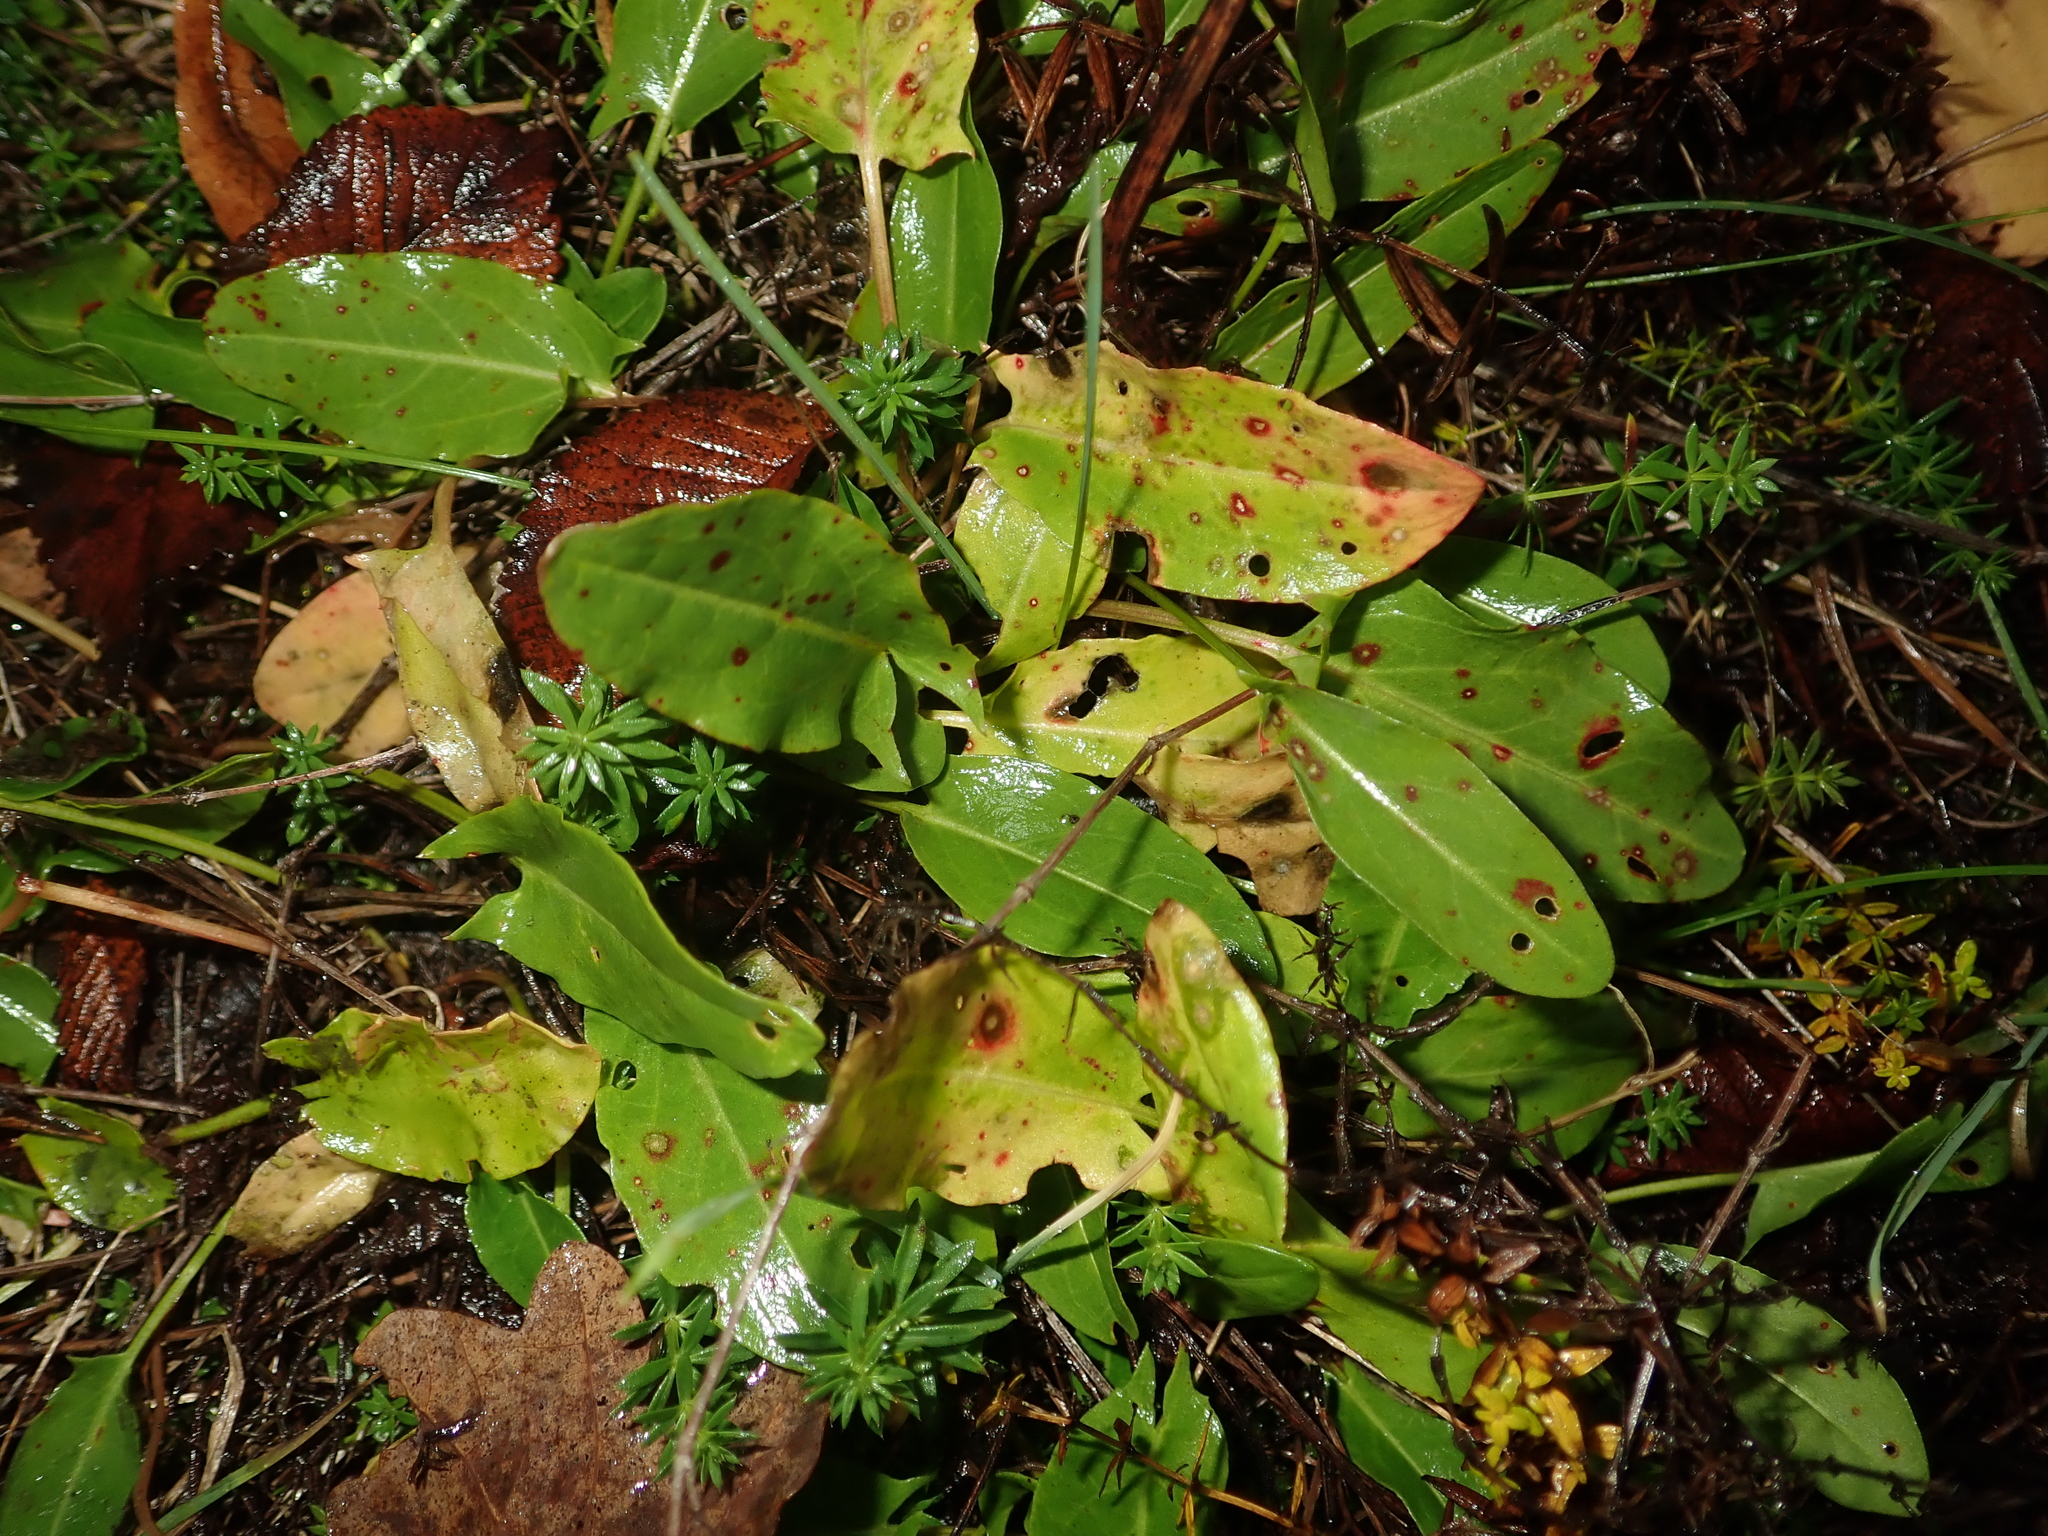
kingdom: Plantae
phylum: Tracheophyta
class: Magnoliopsida
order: Caryophyllales
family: Polygonaceae
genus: Rumex
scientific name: Rumex acetosa
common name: Garden sorrel
